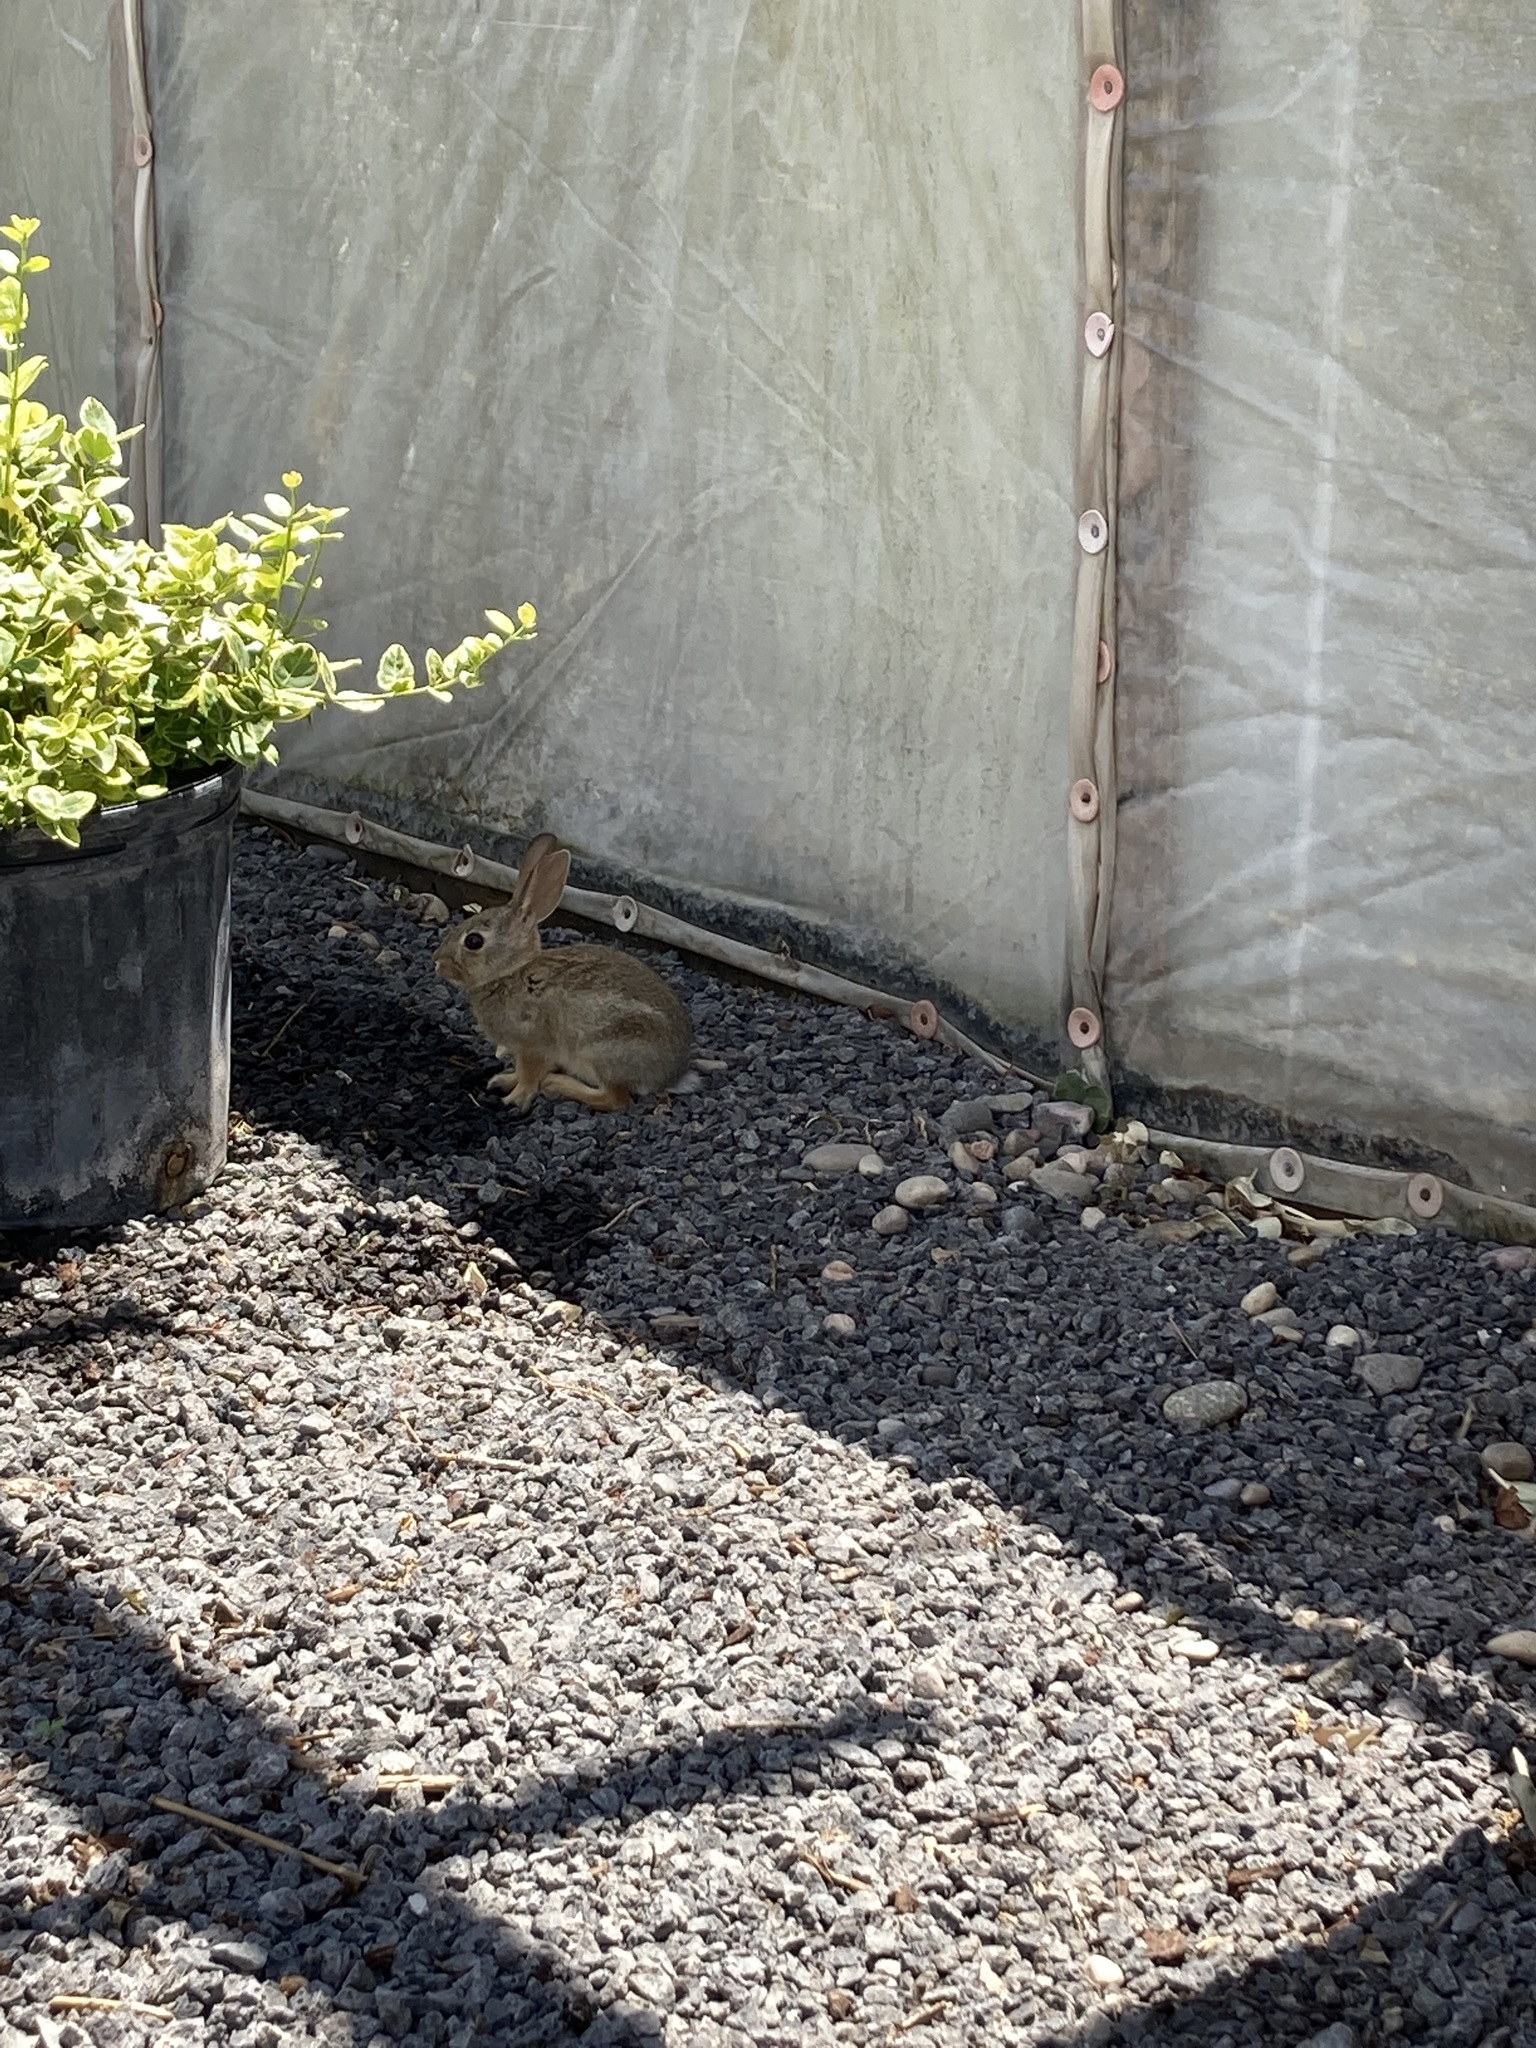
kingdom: Animalia
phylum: Chordata
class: Mammalia
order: Lagomorpha
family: Leporidae
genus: Sylvilagus
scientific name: Sylvilagus audubonii
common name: Desert cottontail
